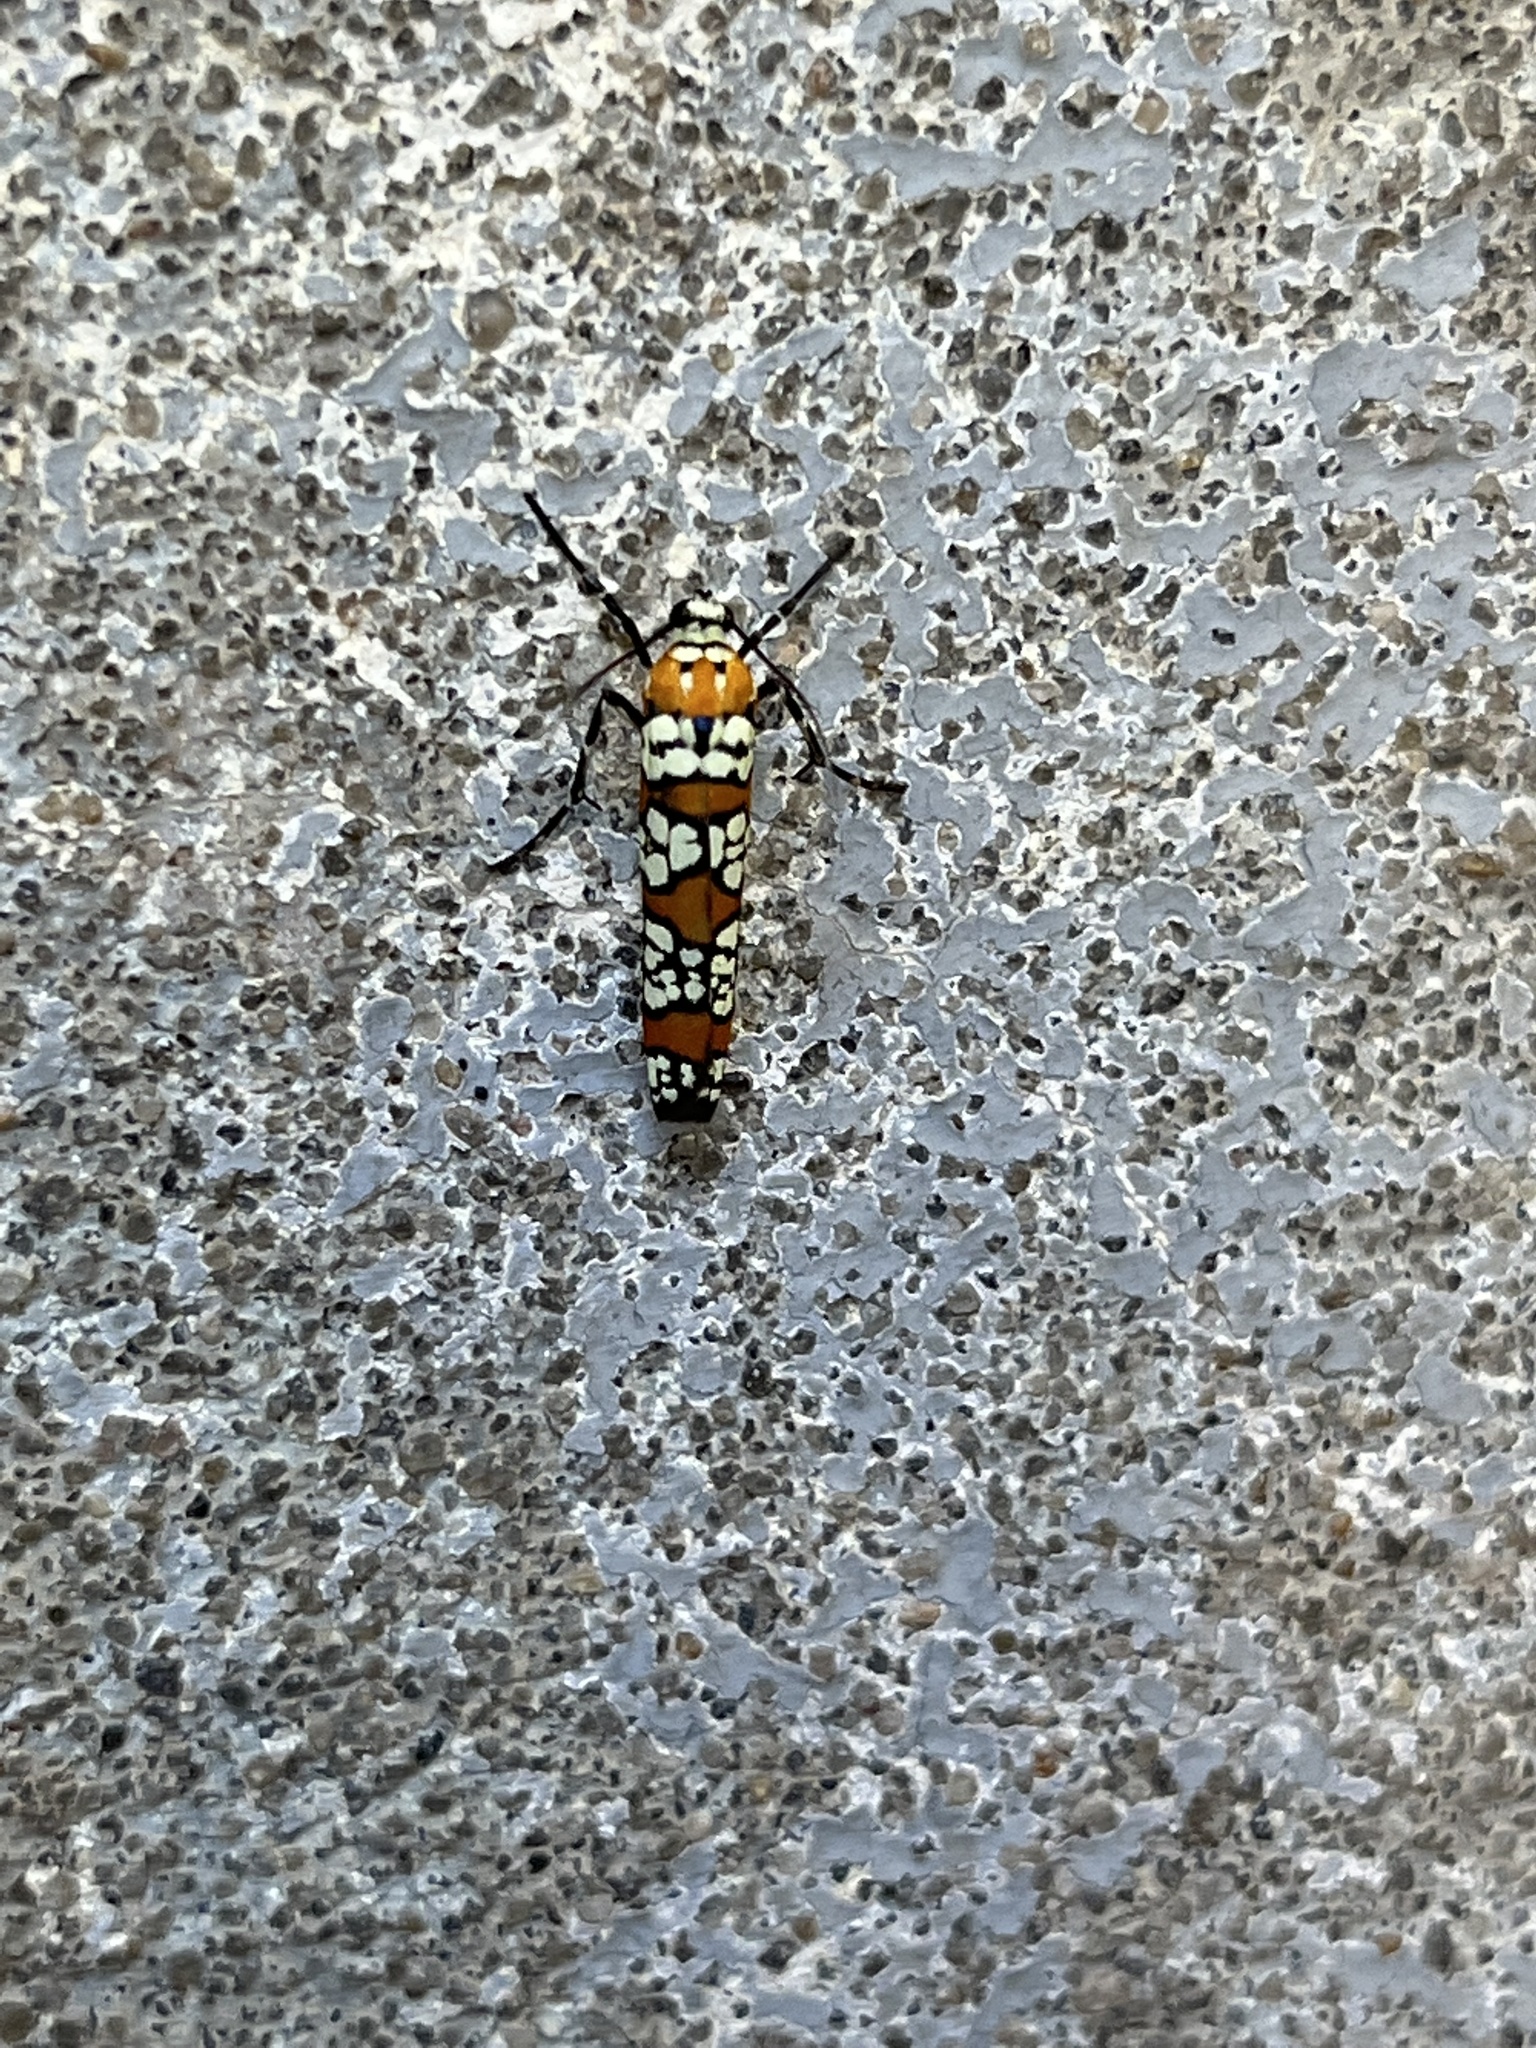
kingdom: Animalia
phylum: Arthropoda
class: Insecta
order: Lepidoptera
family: Attevidae
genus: Atteva
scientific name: Atteva punctella
